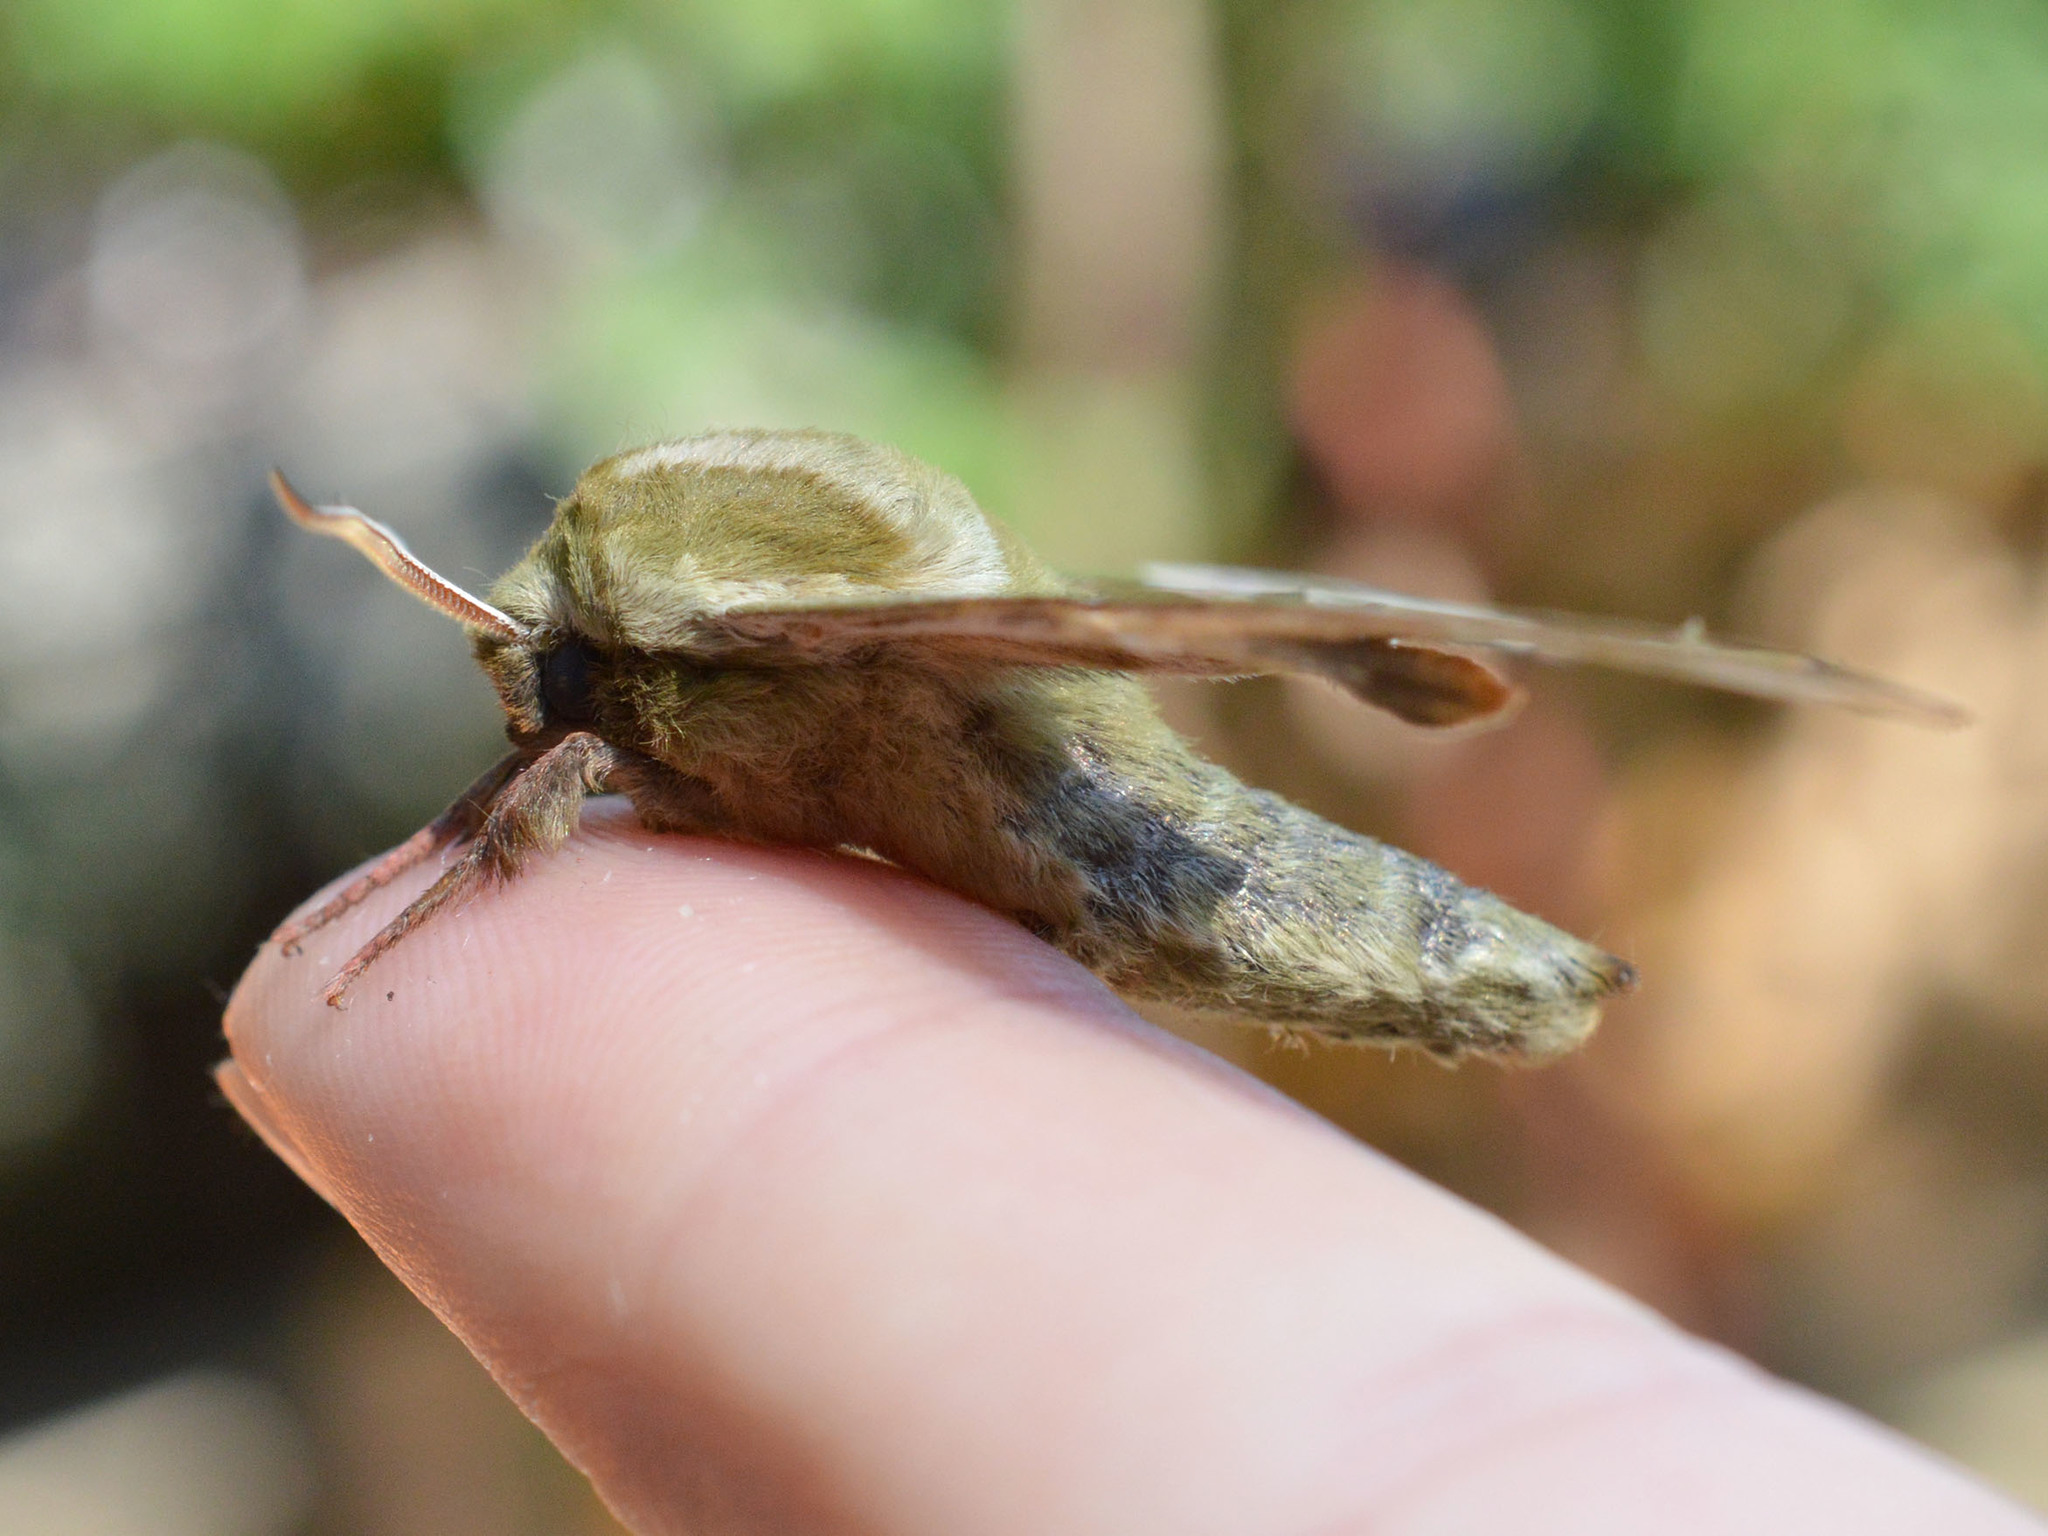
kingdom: Animalia
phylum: Arthropoda
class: Insecta
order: Lepidoptera
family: Sphingidae
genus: Mimas
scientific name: Mimas tiliae
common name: Lime hawk-moth
